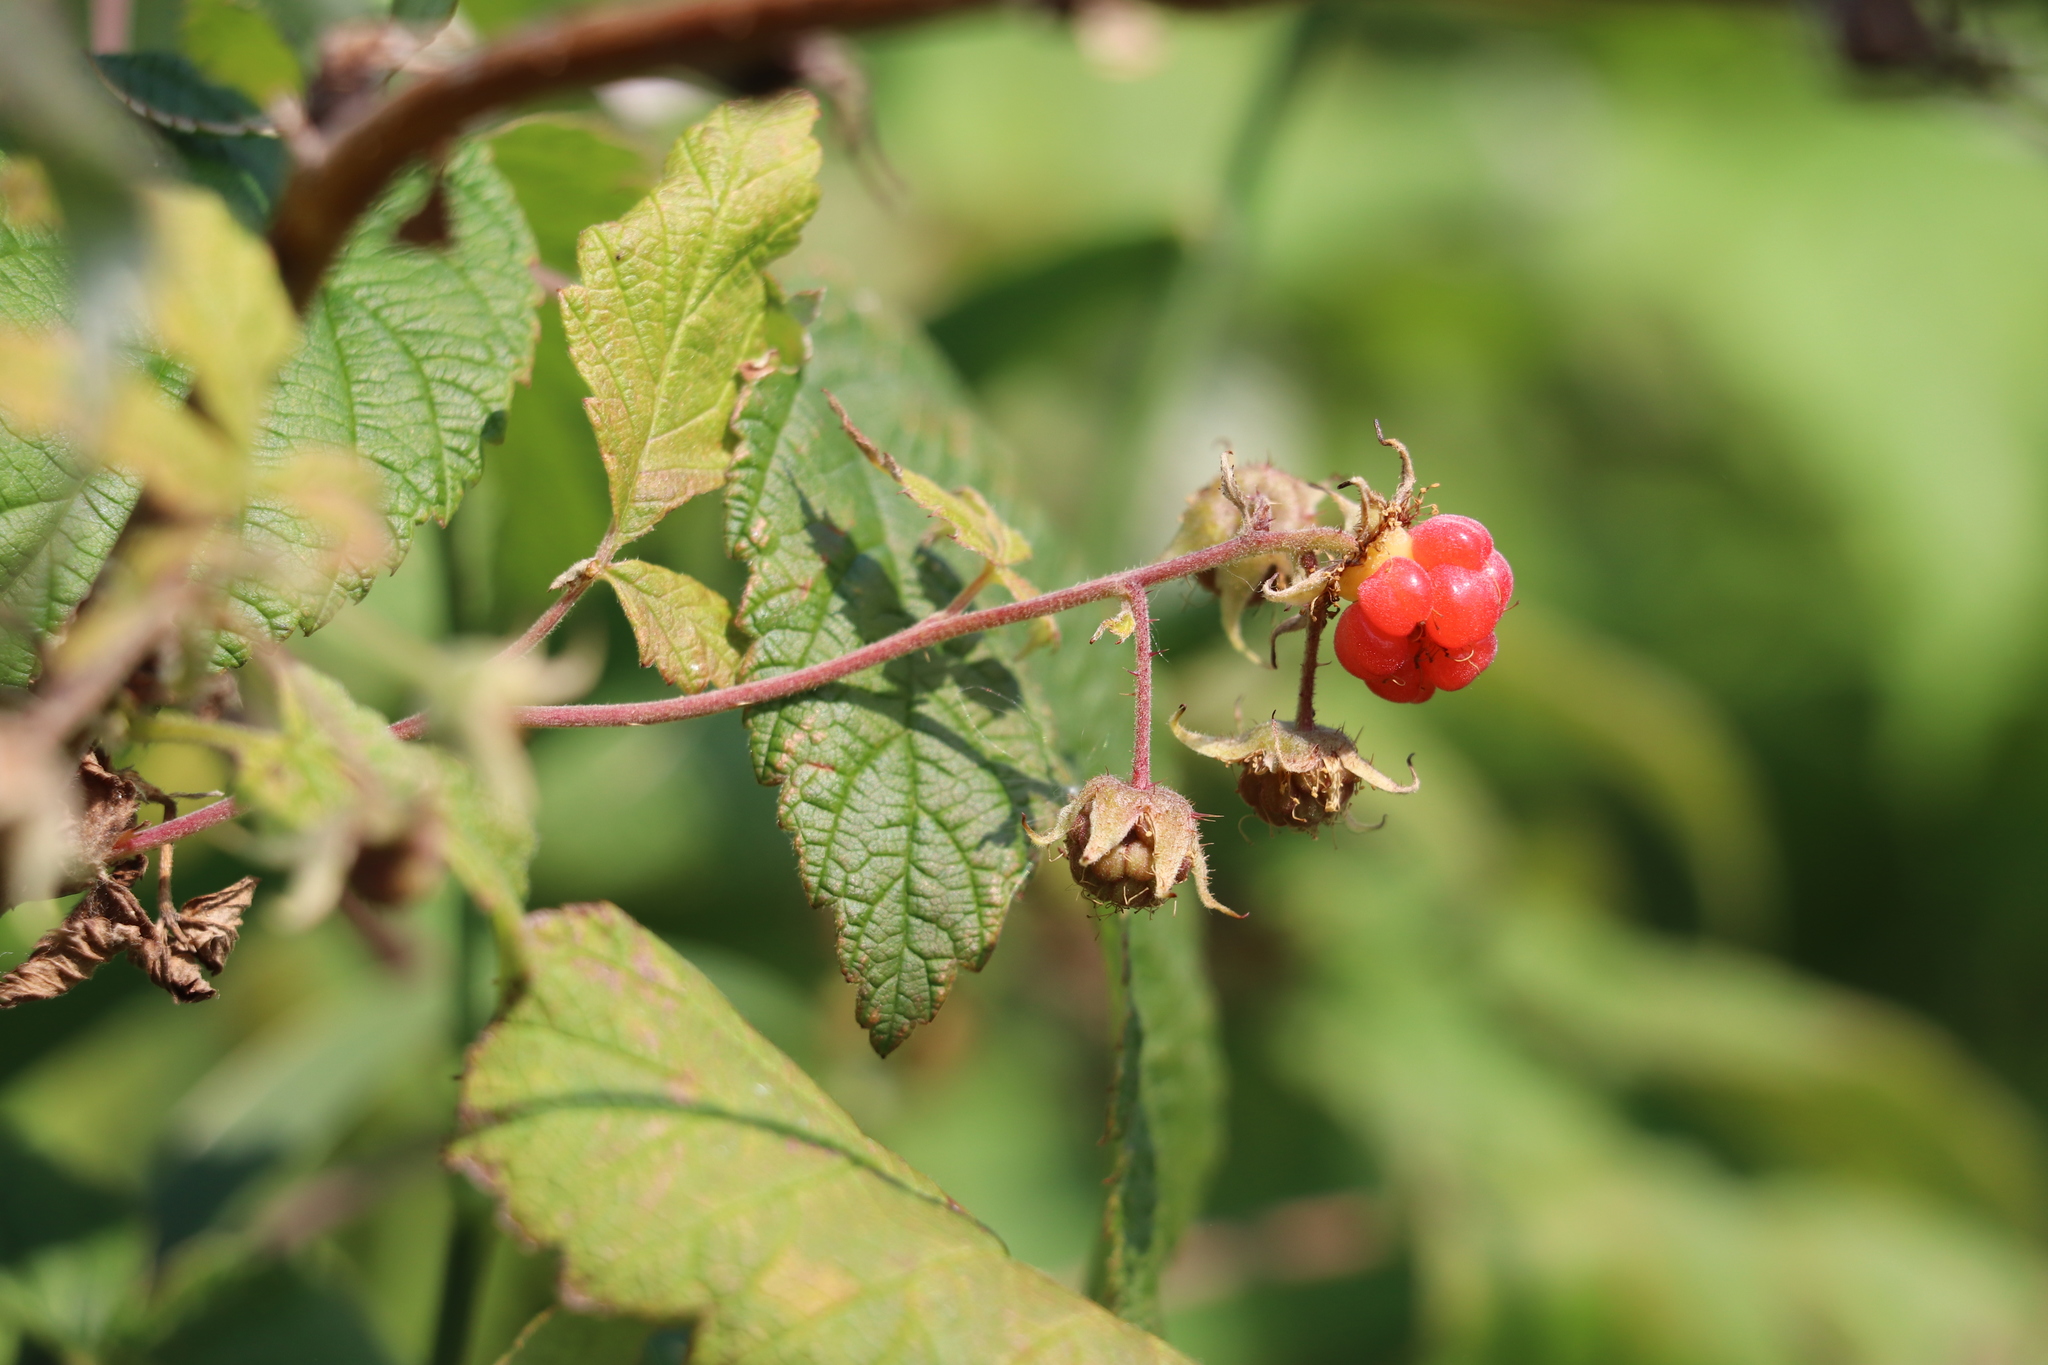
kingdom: Plantae
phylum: Tracheophyta
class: Magnoliopsida
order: Rosales
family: Rosaceae
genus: Rubus
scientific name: Rubus idaeus
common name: Raspberry
